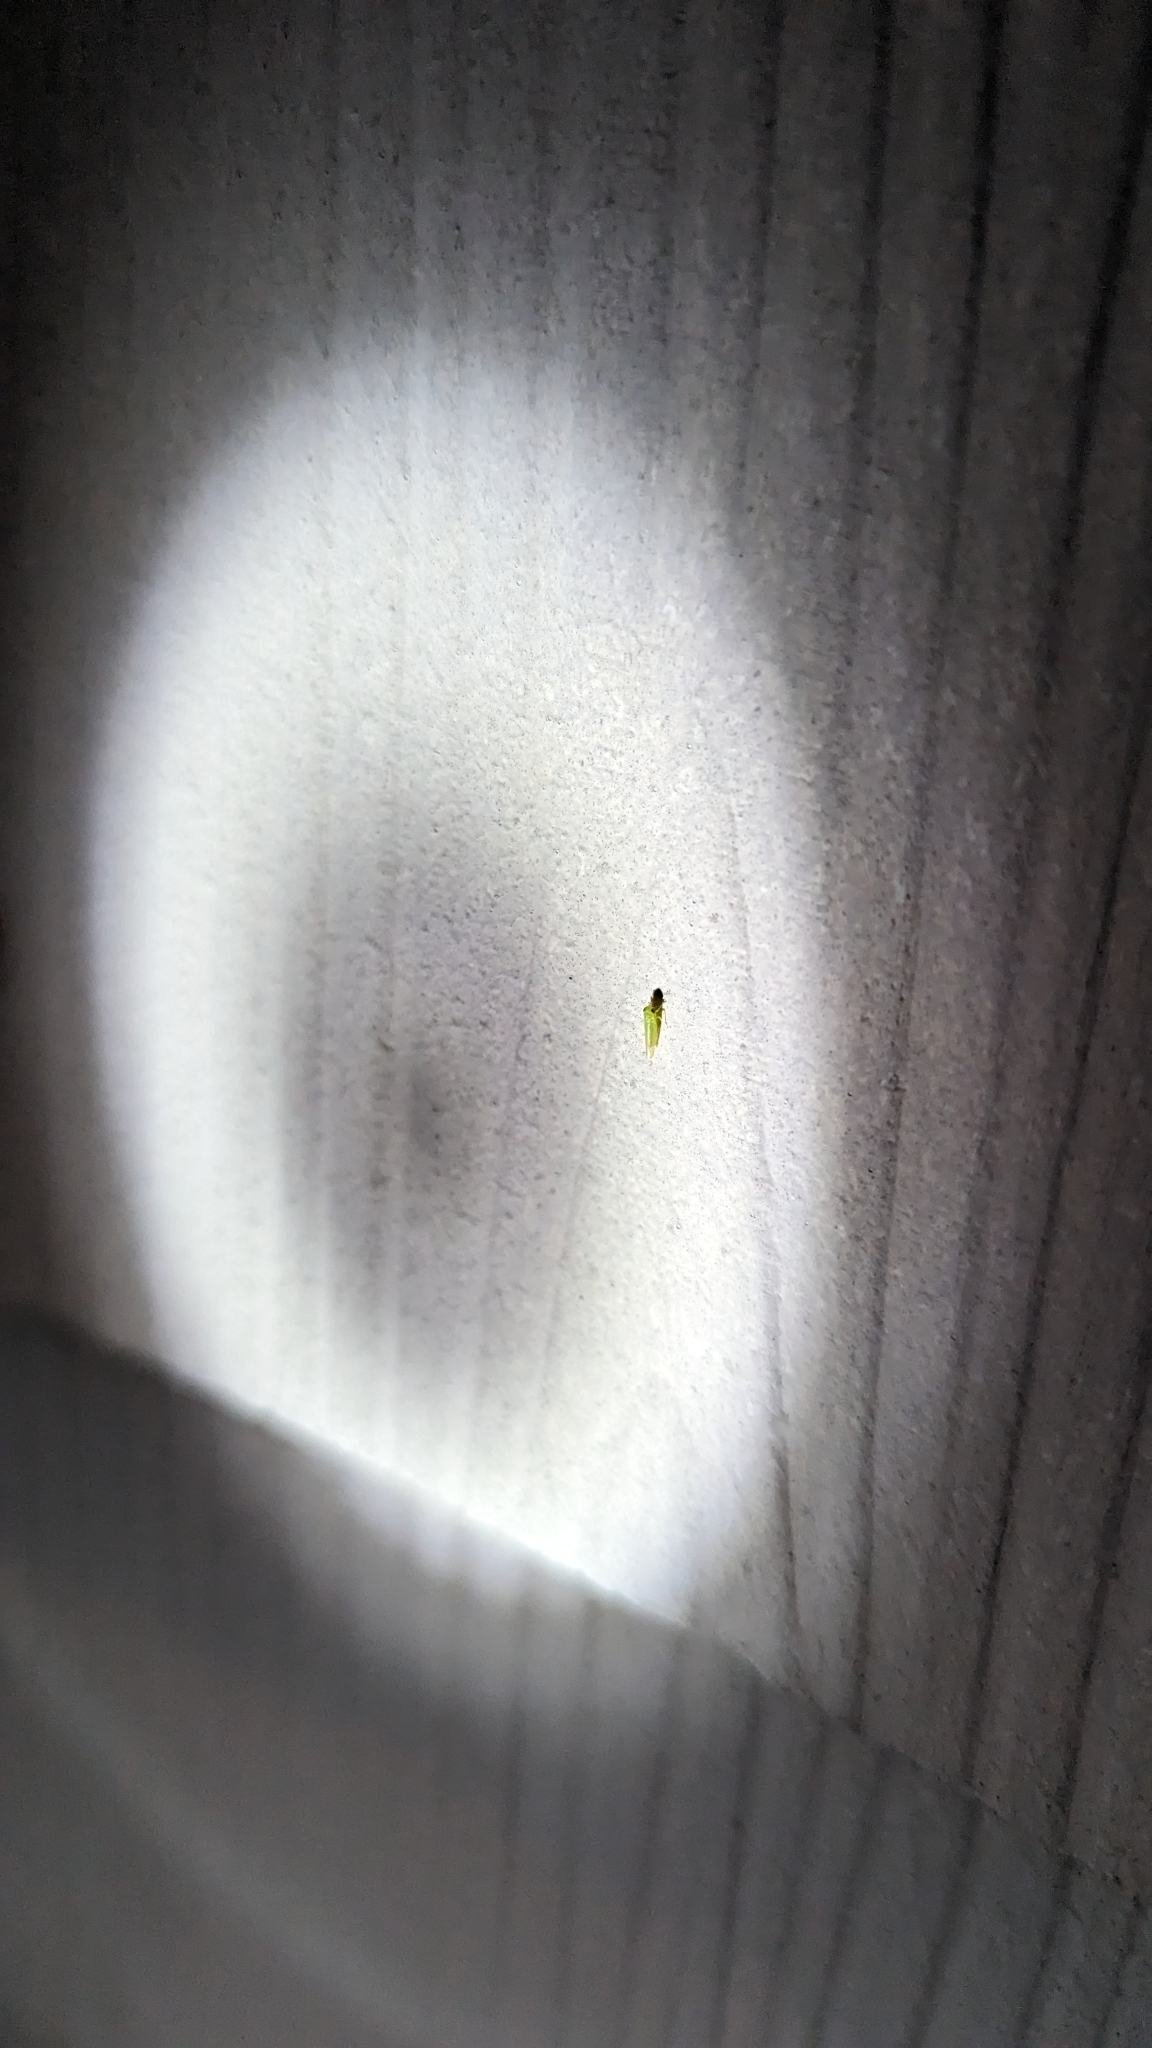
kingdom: Animalia
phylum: Arthropoda
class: Insecta
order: Hemiptera
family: Cicadellidae
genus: Empoasca
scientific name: Empoasca fabae
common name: Potato leafhopper
